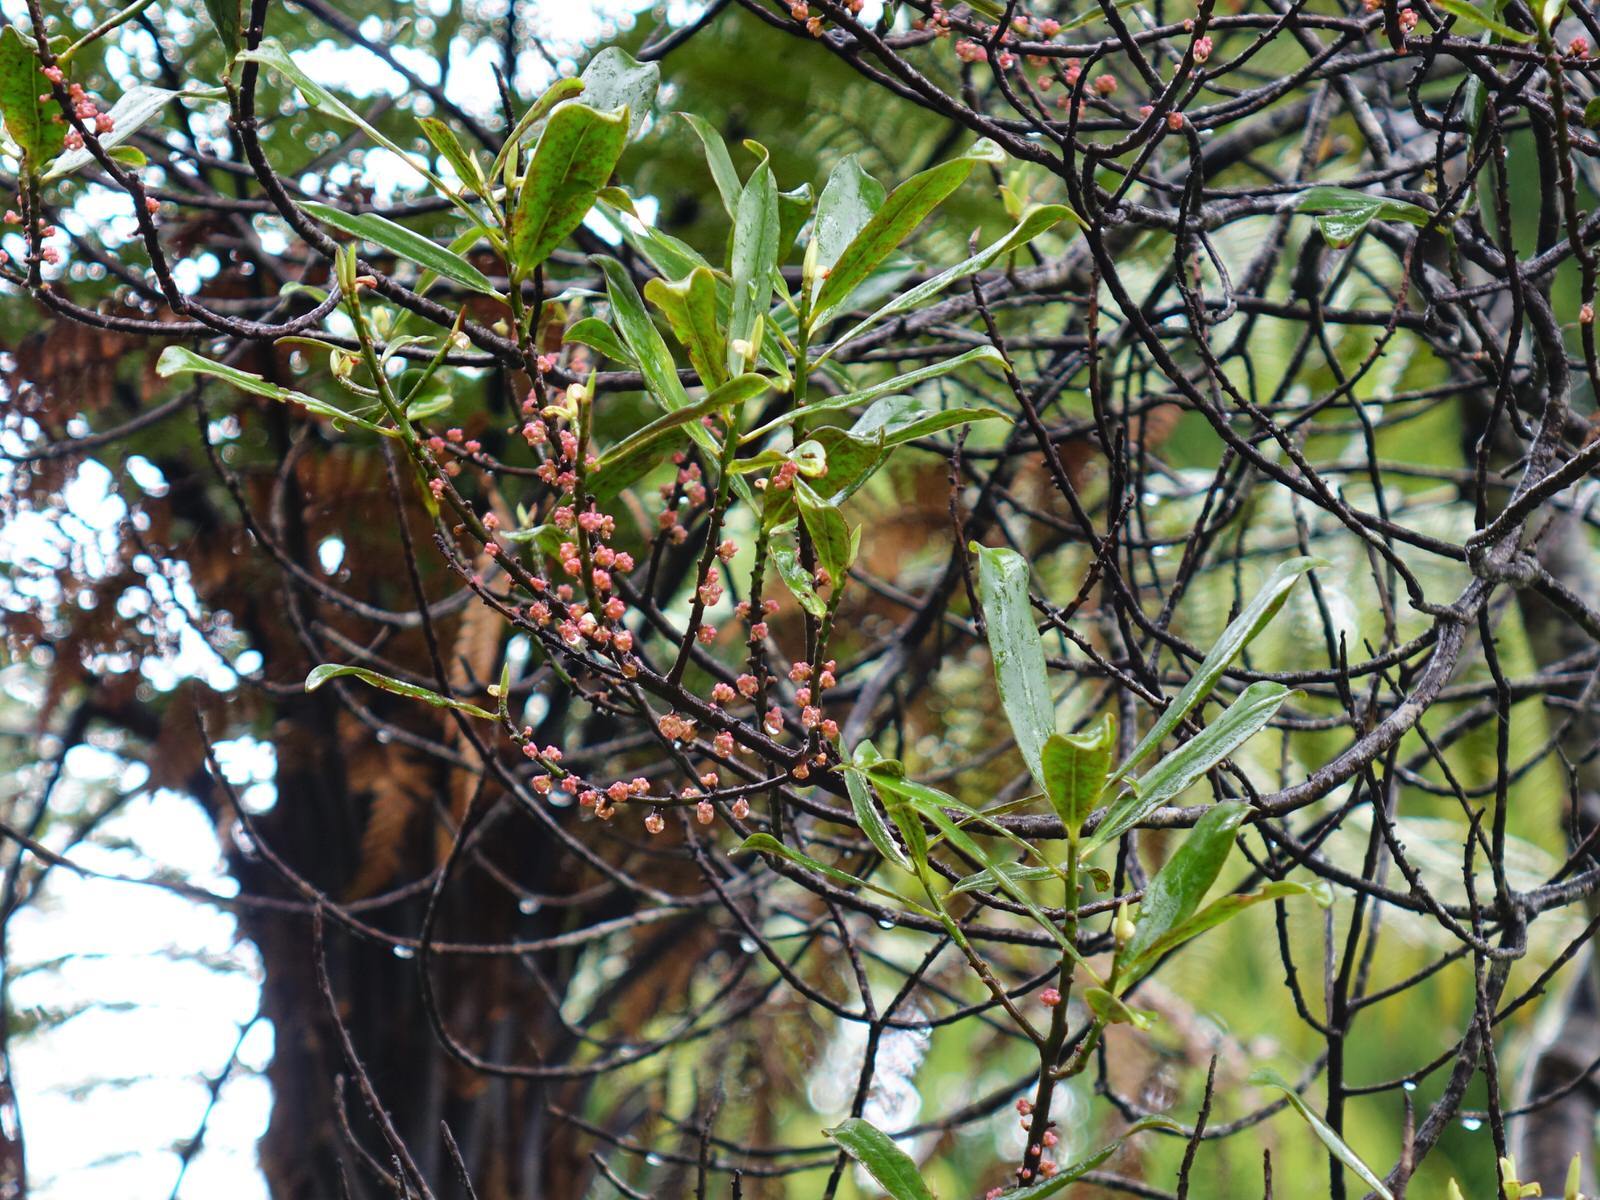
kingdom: Plantae
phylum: Tracheophyta
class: Magnoliopsida
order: Ericales
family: Primulaceae
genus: Myrsine
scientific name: Myrsine salicina
